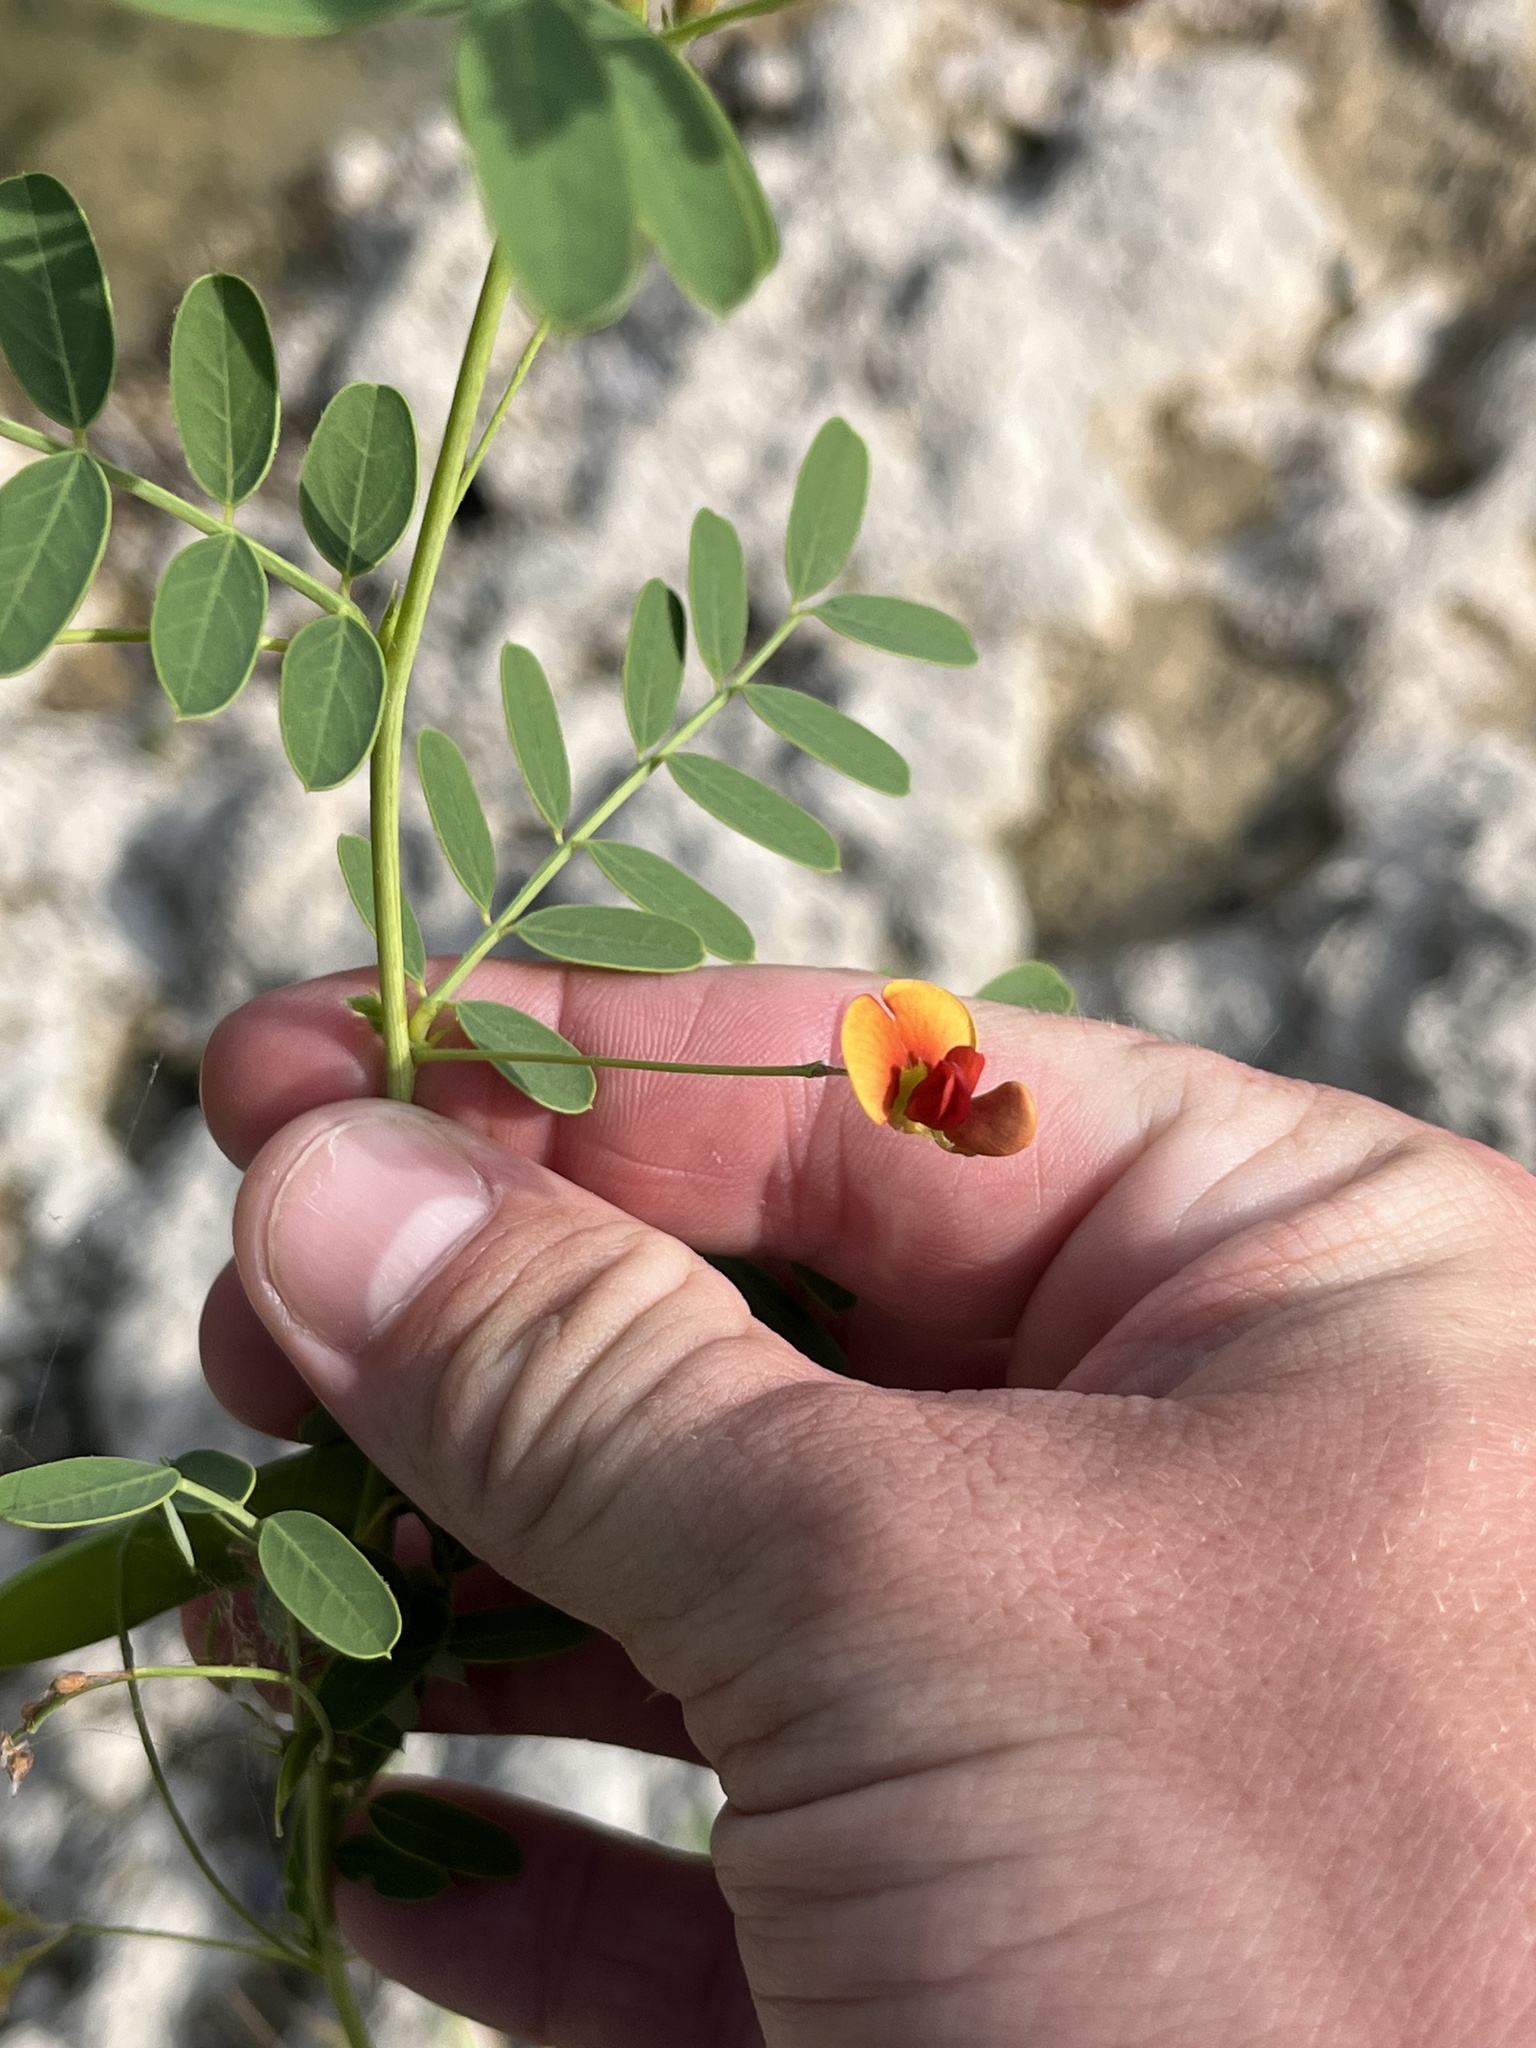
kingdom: Plantae
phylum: Tracheophyta
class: Magnoliopsida
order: Fabales
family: Fabaceae
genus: Sesbania
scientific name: Sesbania vesicaria
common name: Bagpod
